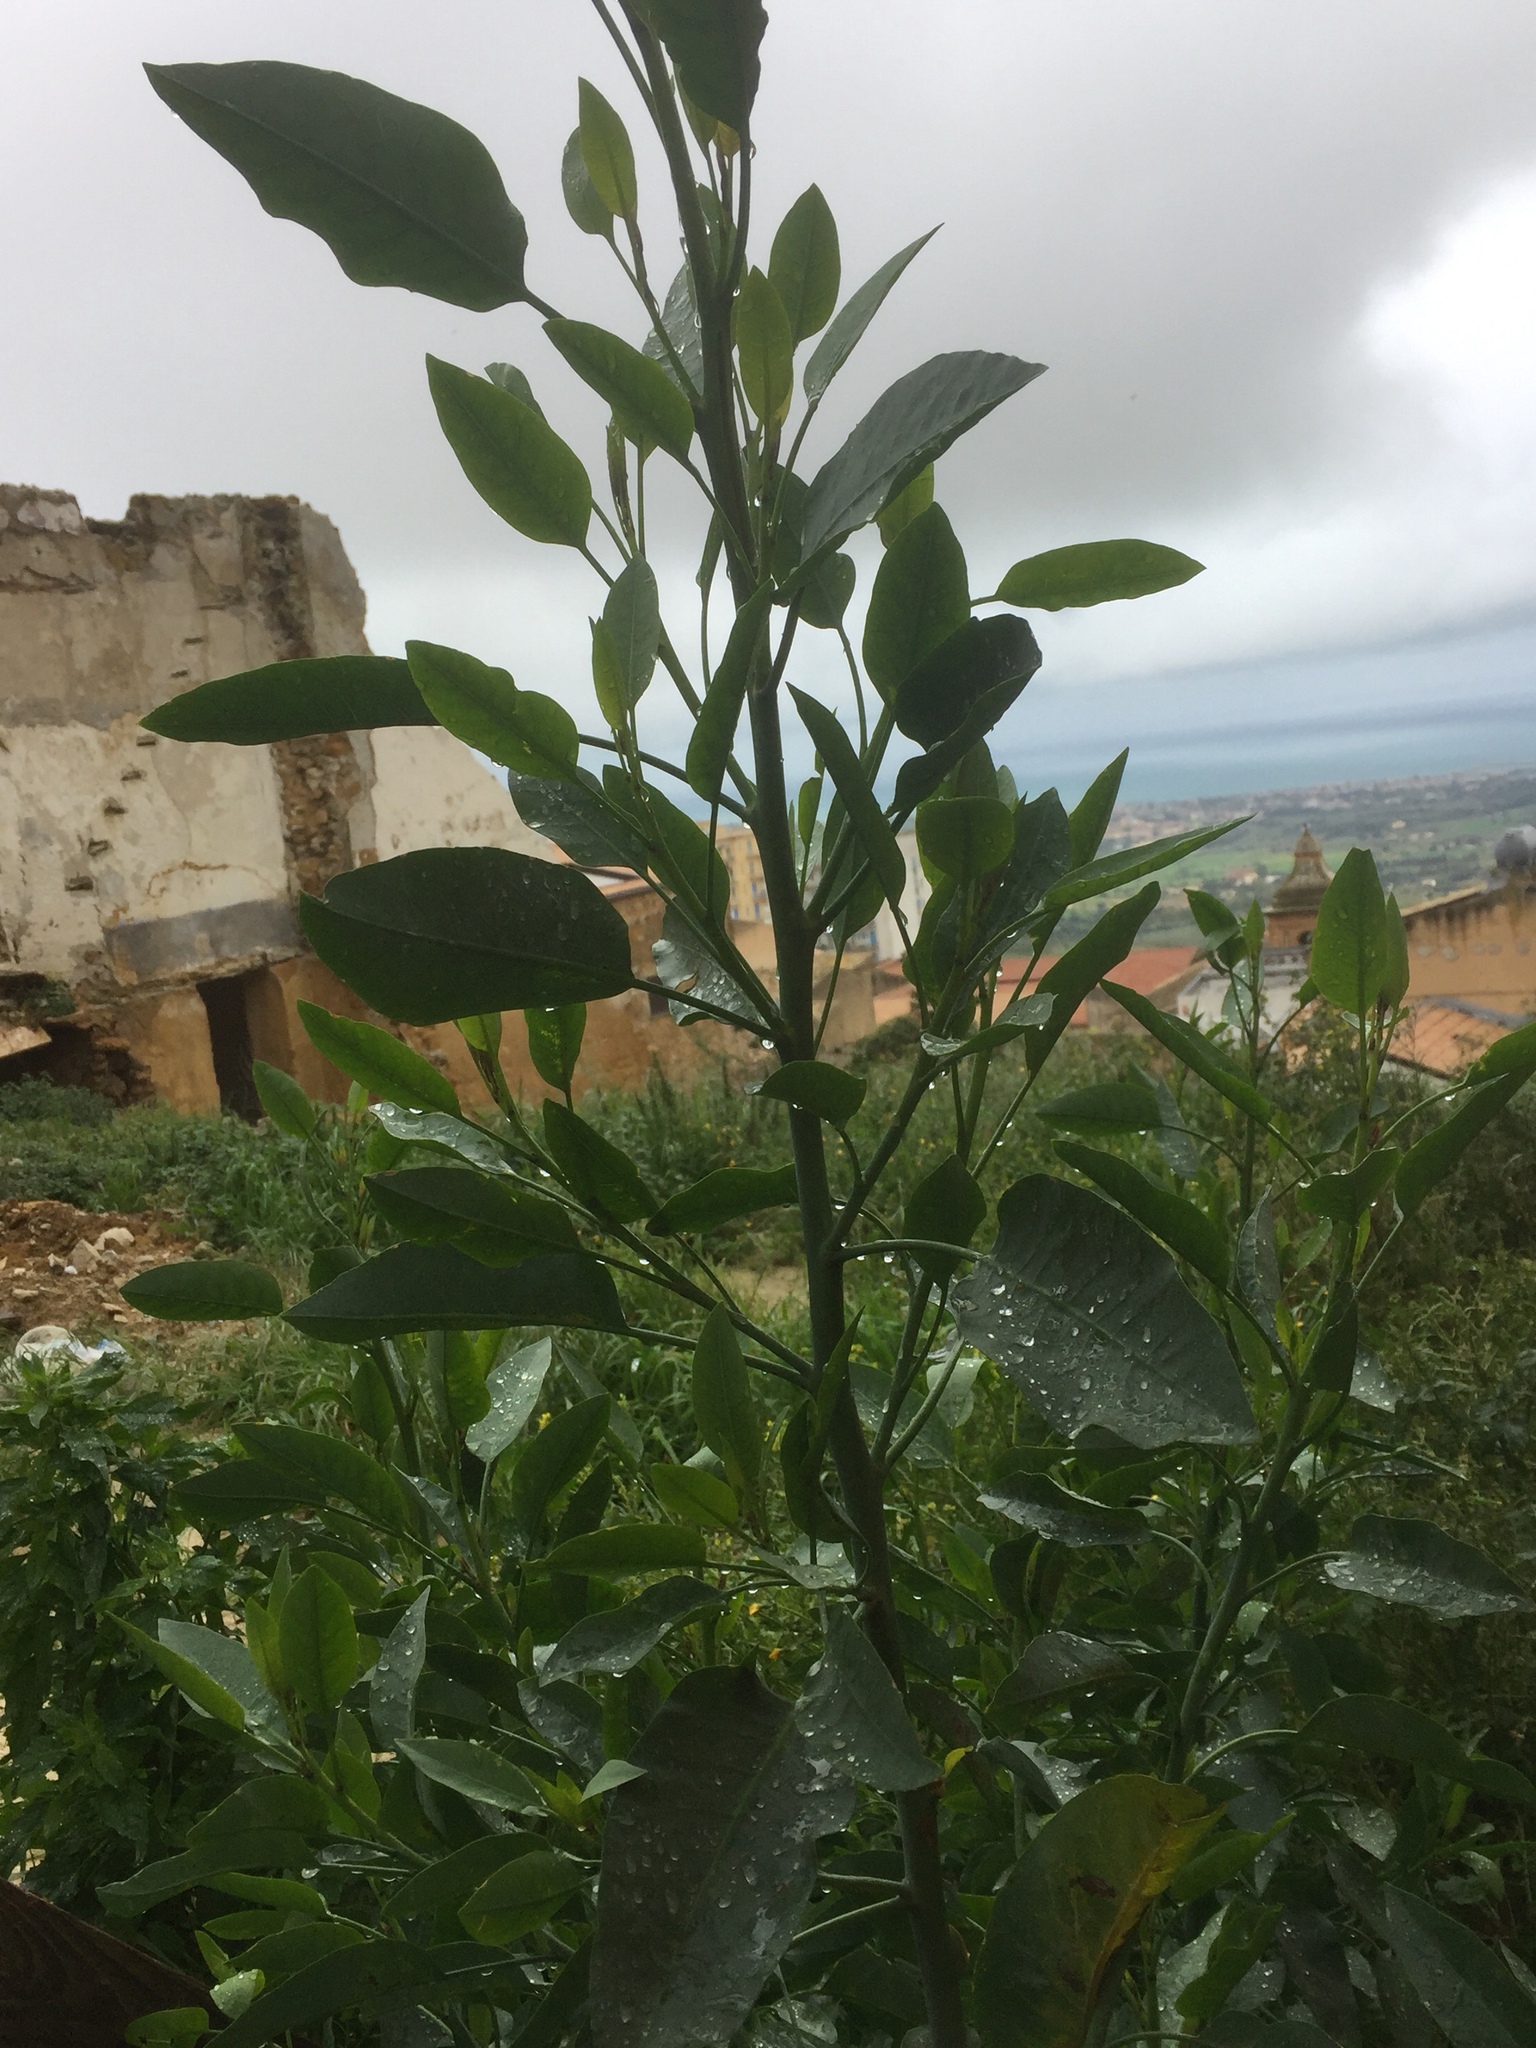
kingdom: Plantae
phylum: Tracheophyta
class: Magnoliopsida
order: Solanales
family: Solanaceae
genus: Nicotiana
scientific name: Nicotiana glauca
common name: Tree tobacco
